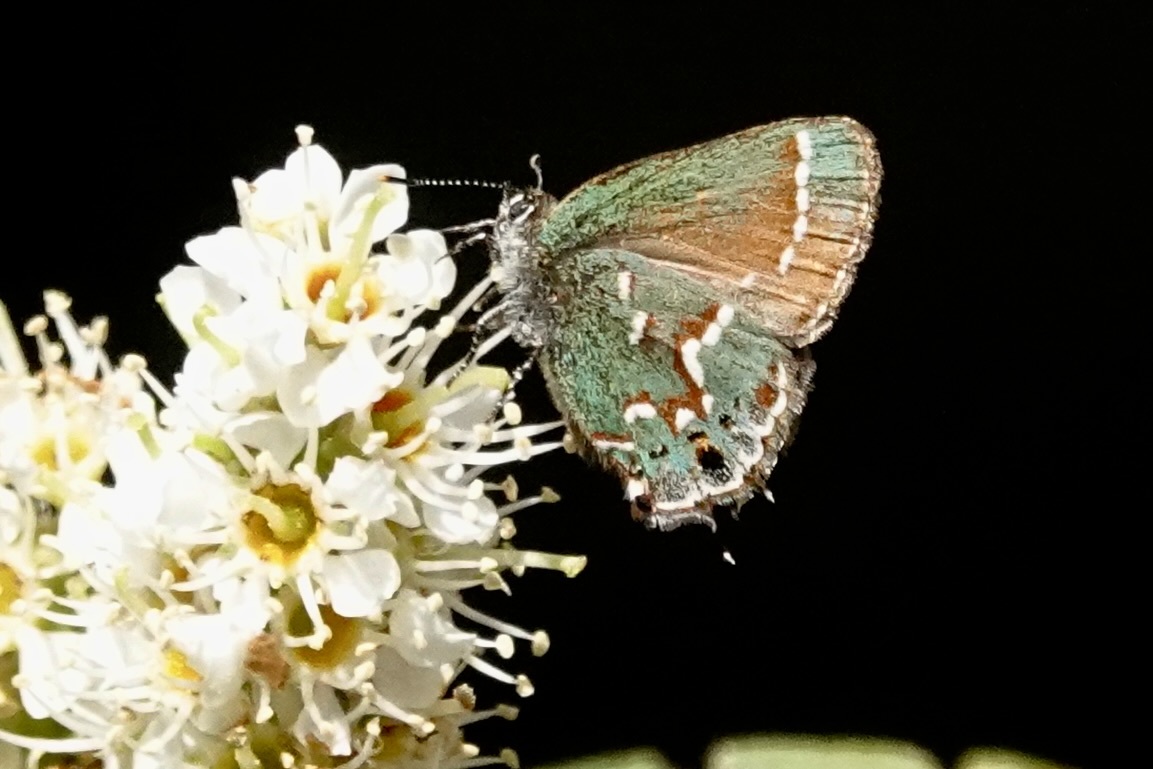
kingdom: Animalia
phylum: Arthropoda
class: Insecta
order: Lepidoptera
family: Lycaenidae
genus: Mitoura
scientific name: Mitoura gryneus
